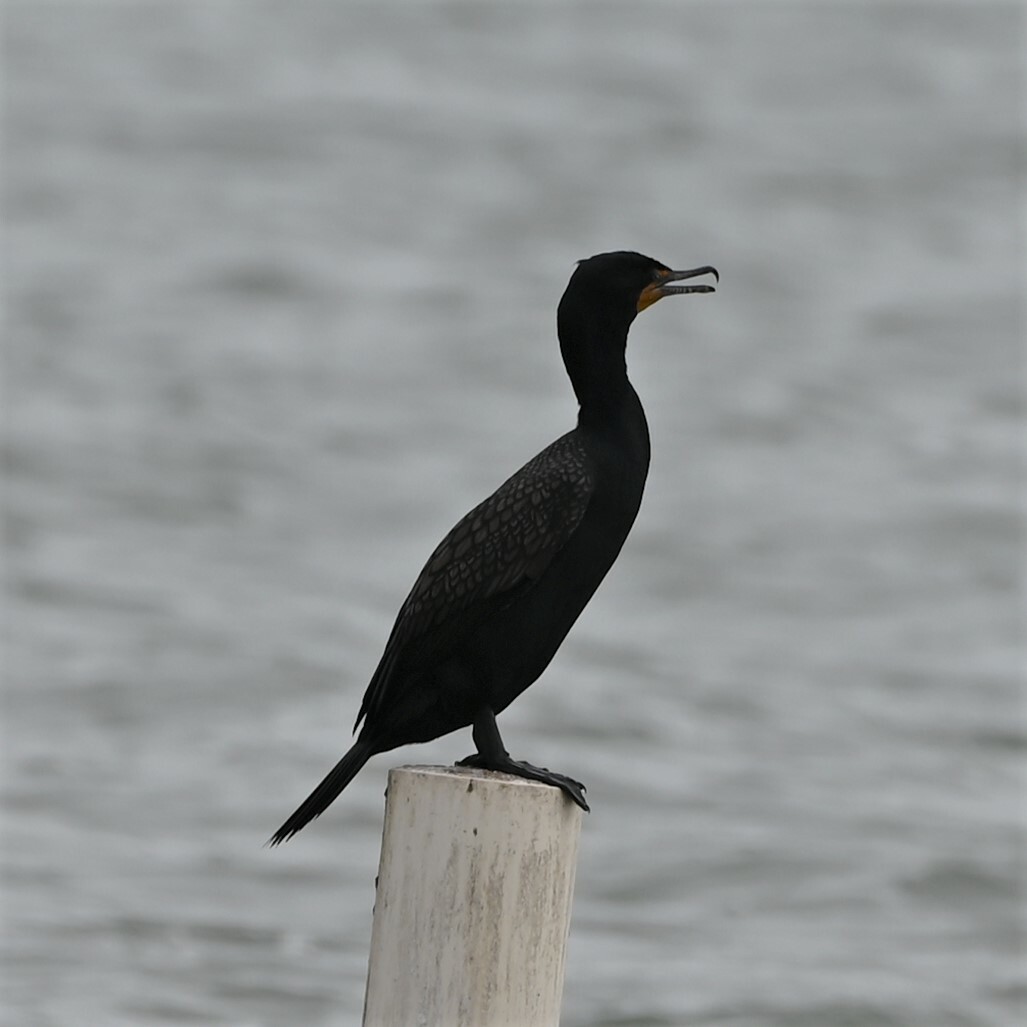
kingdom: Animalia
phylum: Chordata
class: Aves
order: Suliformes
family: Phalacrocoracidae
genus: Phalacrocorax
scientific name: Phalacrocorax auritus
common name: Double-crested cormorant
